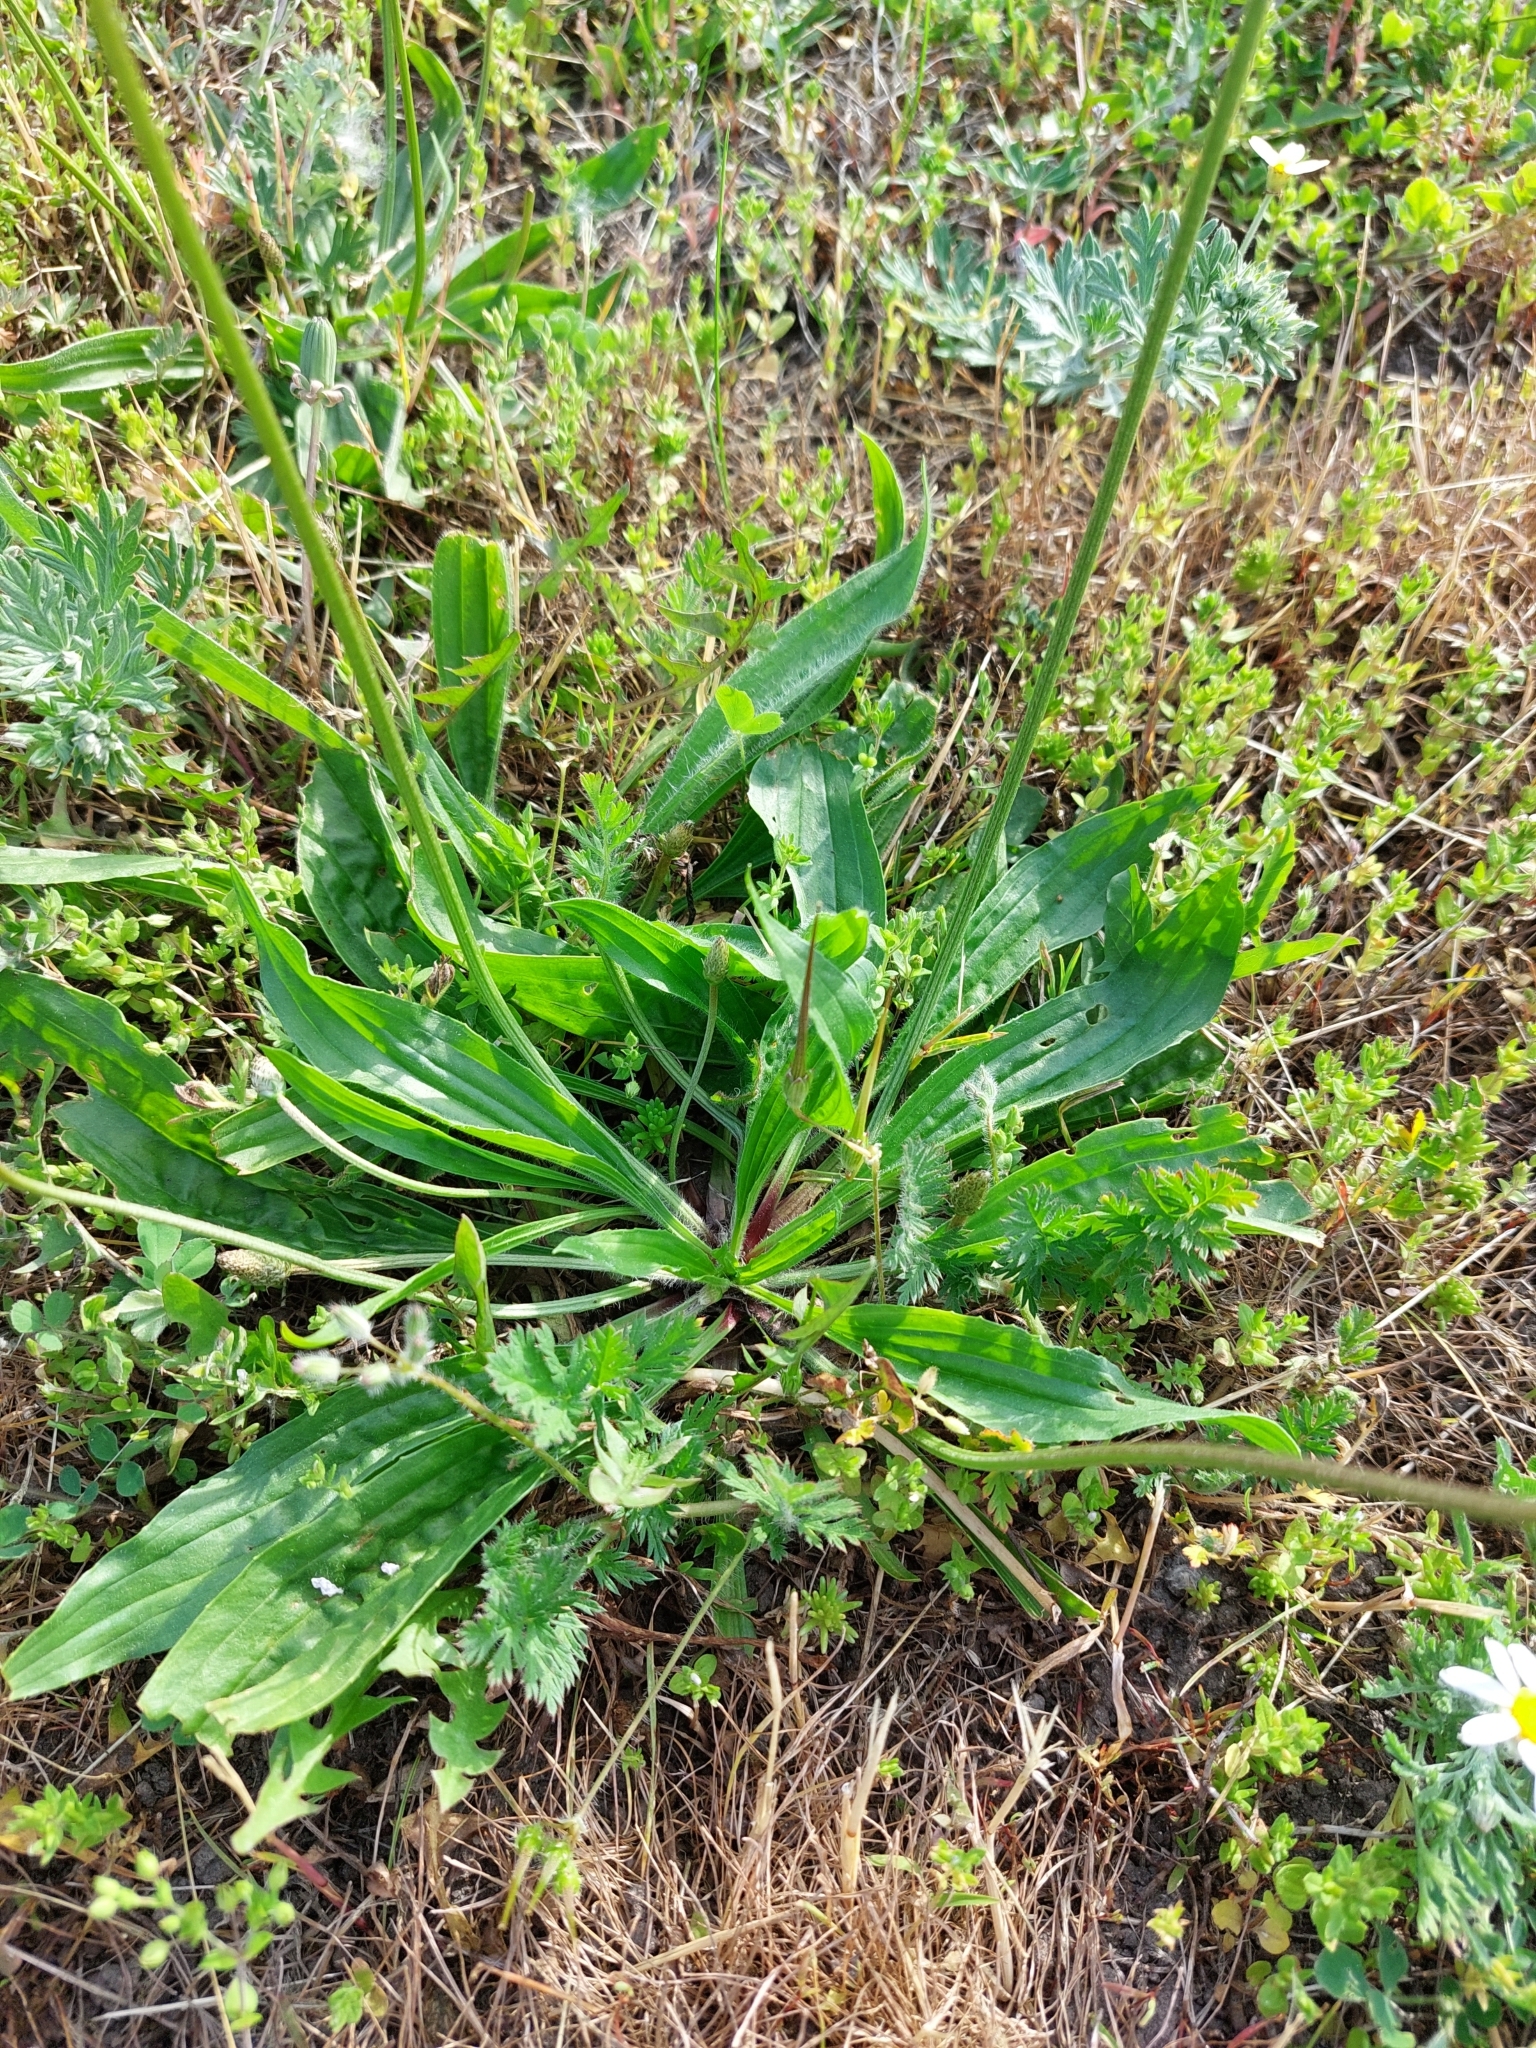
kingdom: Plantae
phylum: Tracheophyta
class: Magnoliopsida
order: Lamiales
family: Plantaginaceae
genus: Plantago
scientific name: Plantago lanceolata
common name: Ribwort plantain
